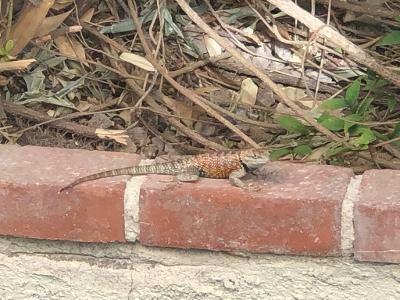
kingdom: Animalia
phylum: Chordata
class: Squamata
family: Phrynosomatidae
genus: Sceloporus
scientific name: Sceloporus uniformis
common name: Yellow-backed spiny lizard
